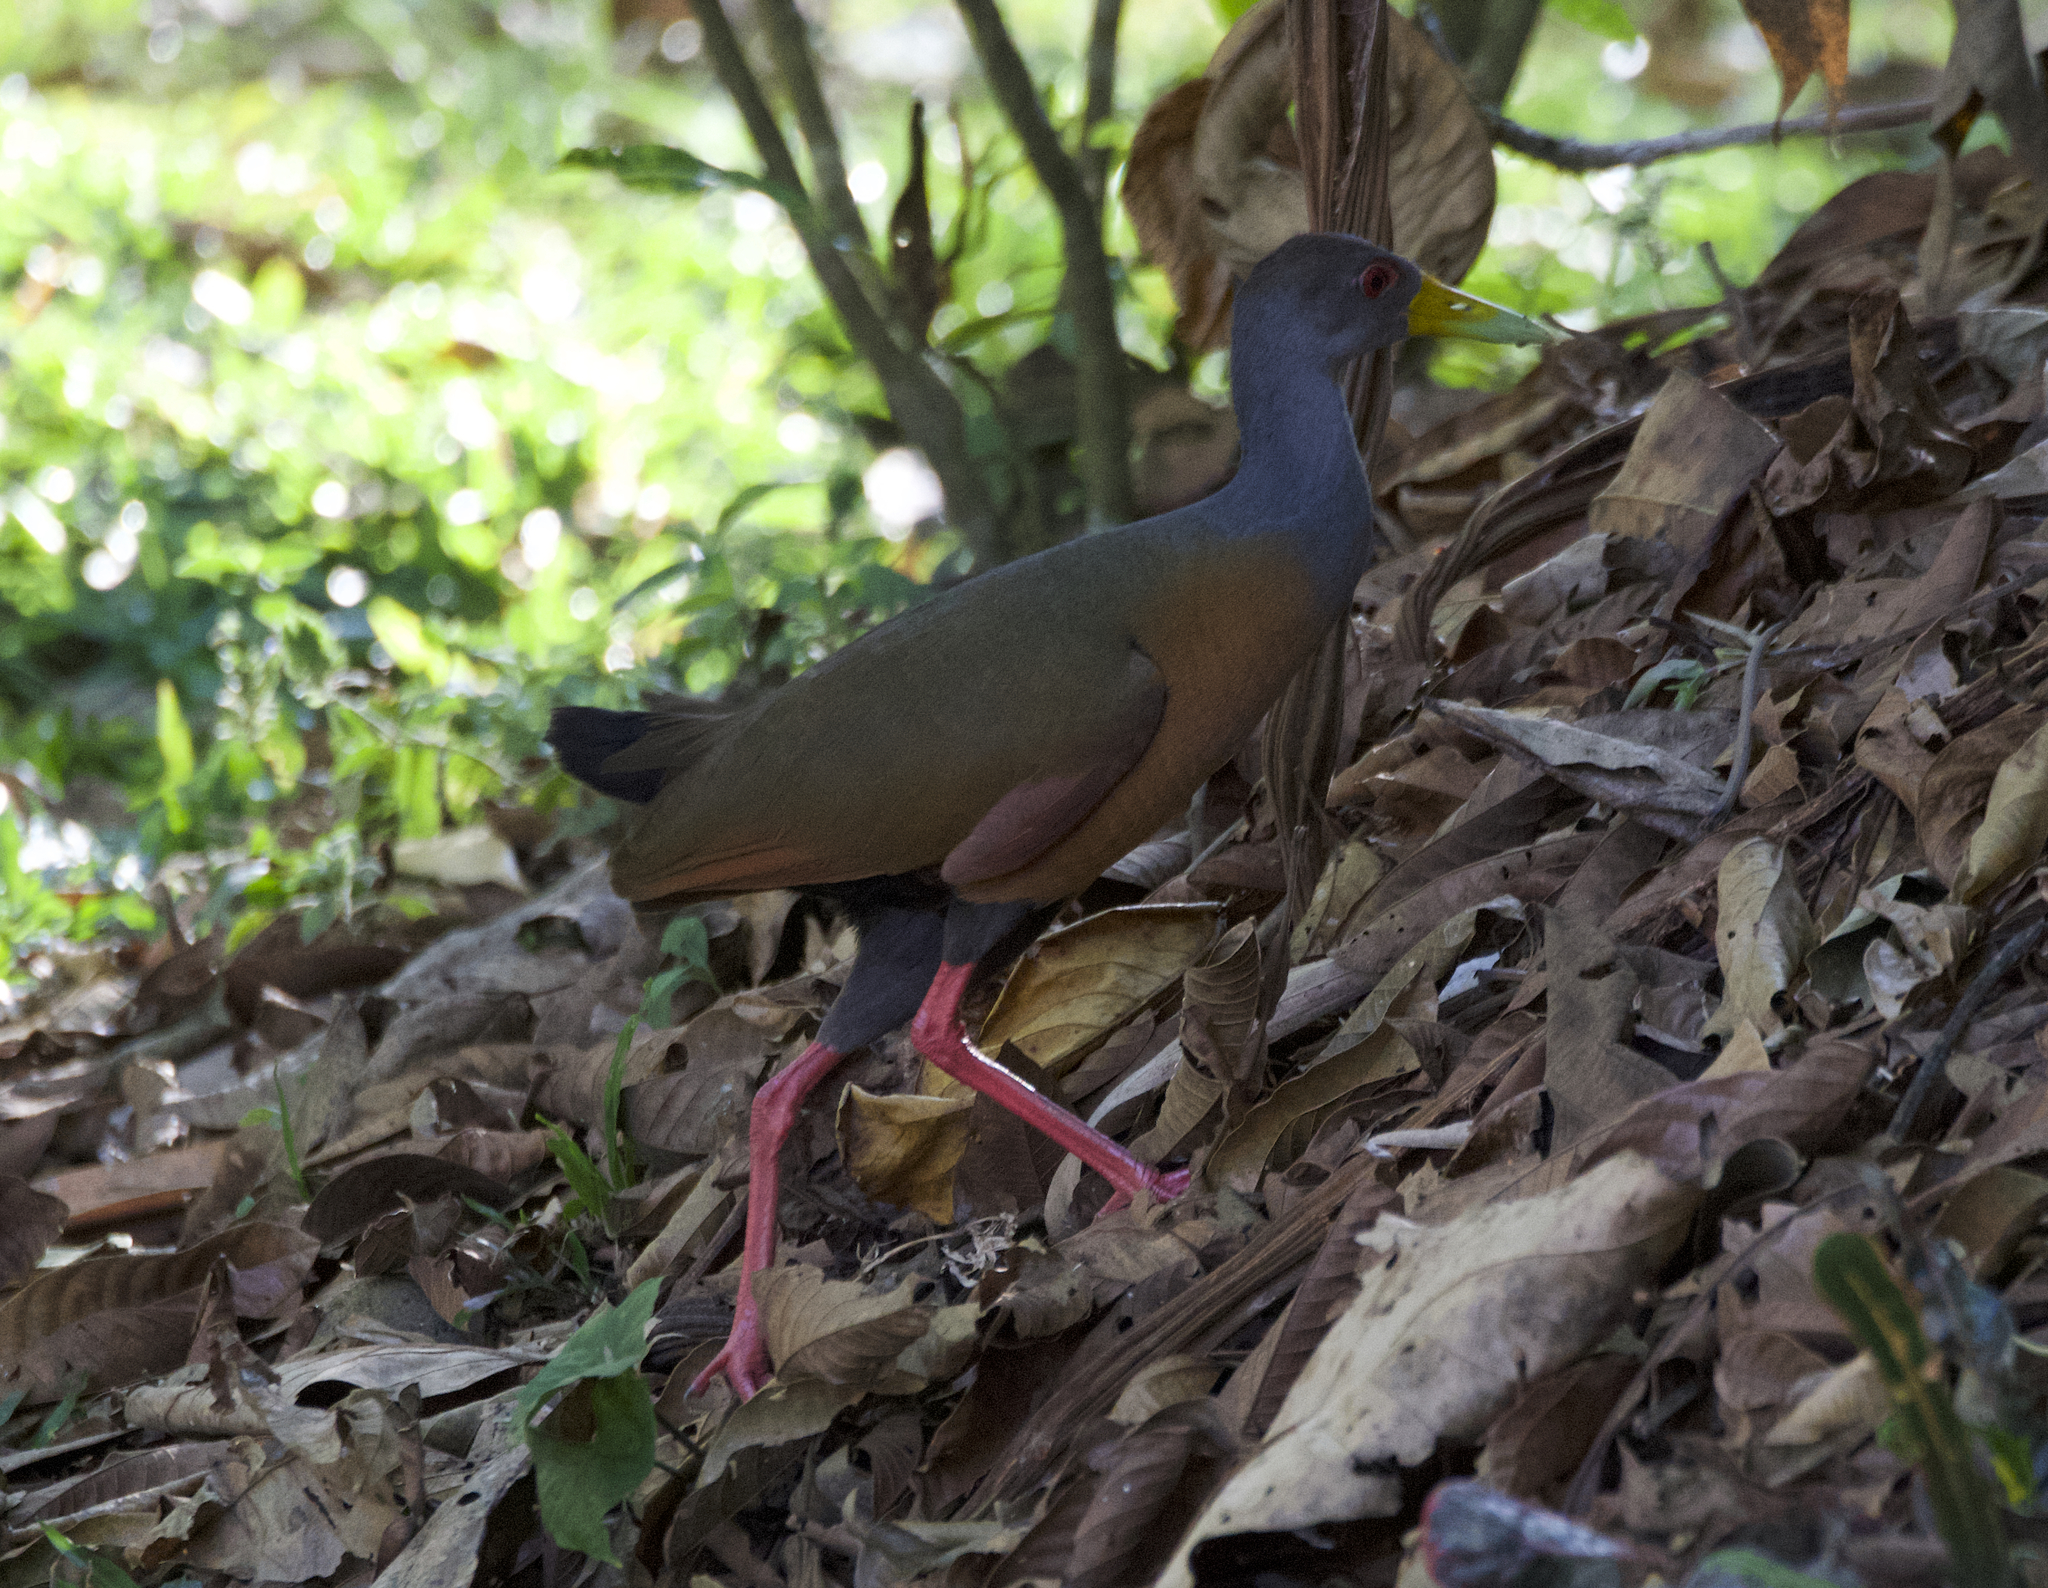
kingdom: Animalia
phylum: Chordata
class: Aves
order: Gruiformes
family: Rallidae
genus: Aramides
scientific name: Aramides cajanea
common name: Gray-necked wood-rail
